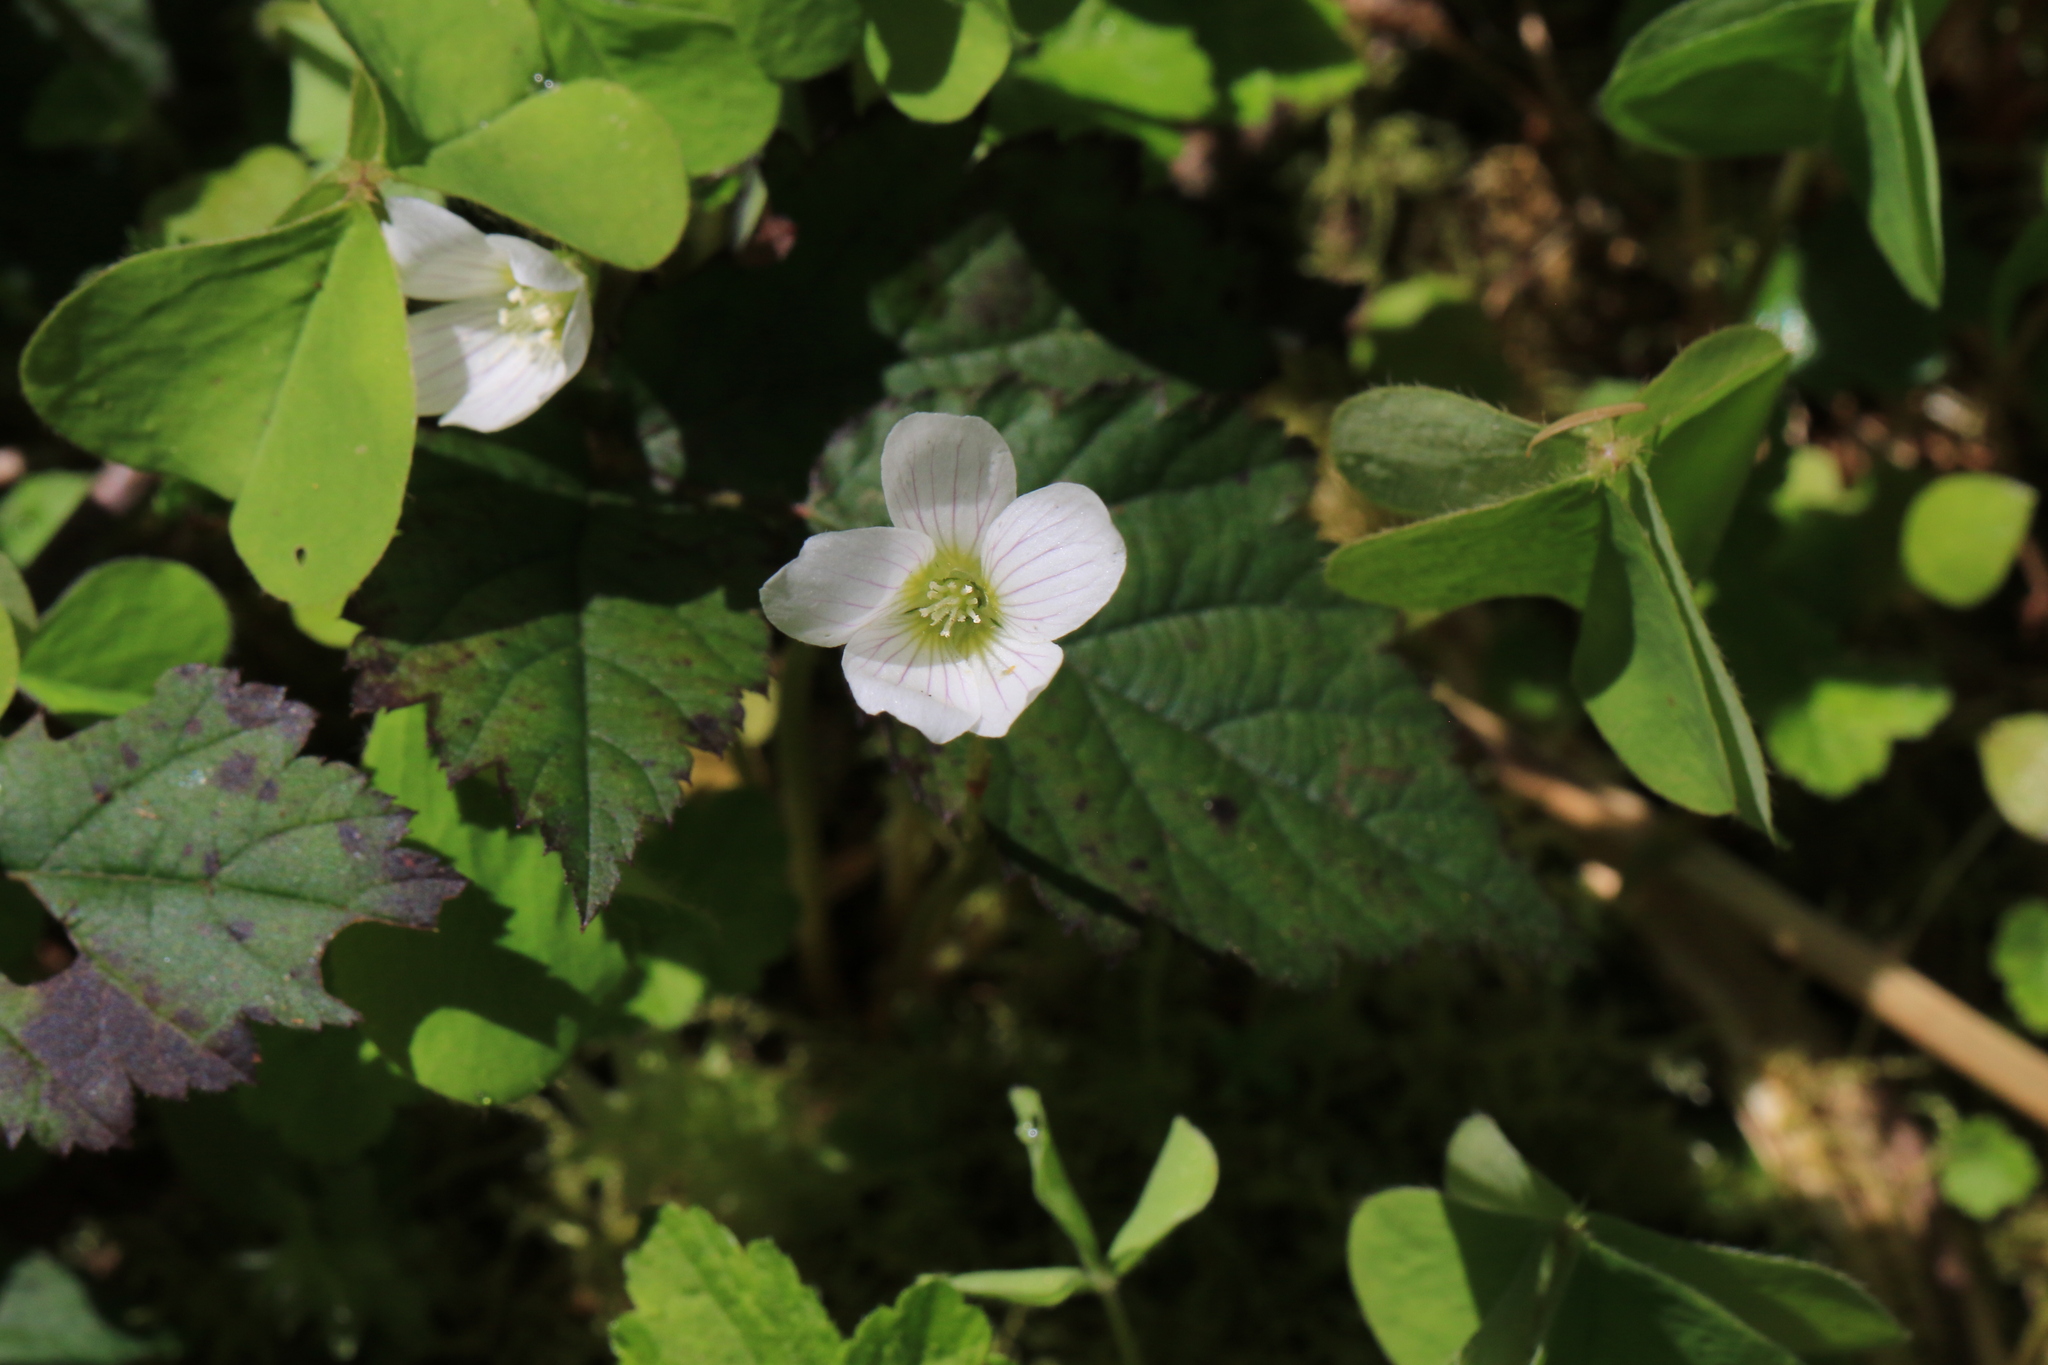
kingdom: Plantae
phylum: Tracheophyta
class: Magnoliopsida
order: Oxalidales
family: Oxalidaceae
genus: Oxalis
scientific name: Oxalis oregana
